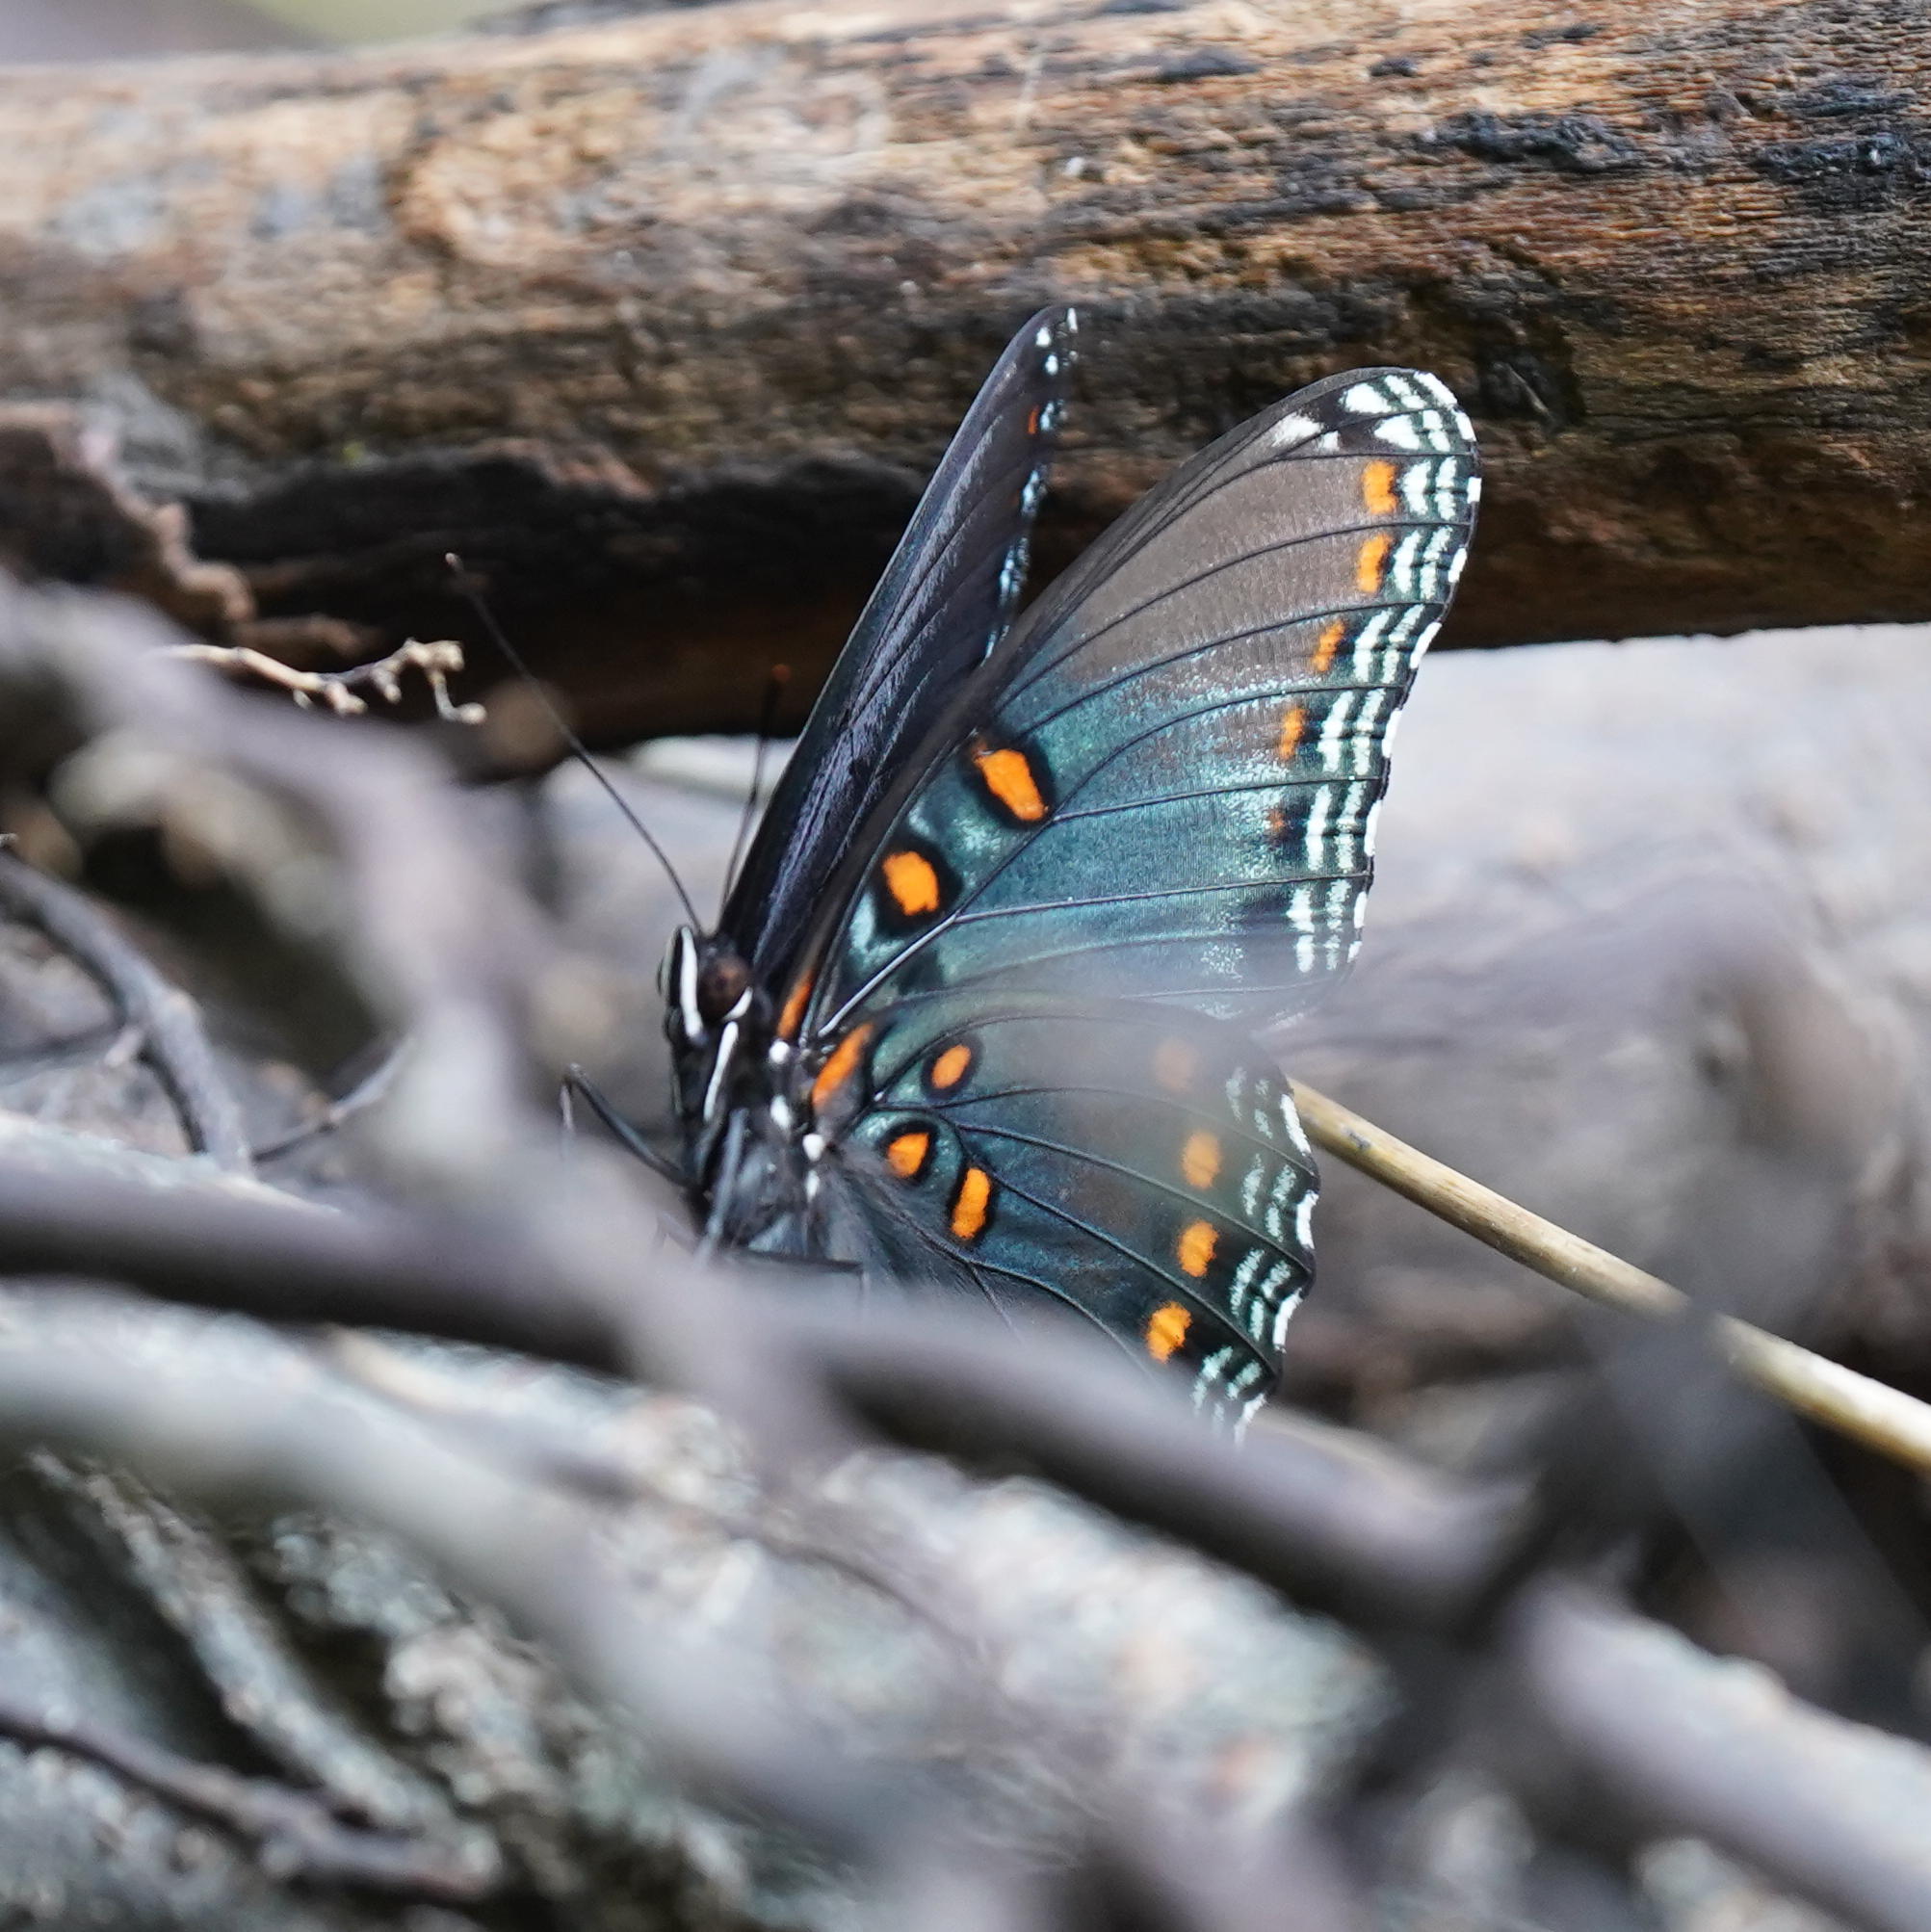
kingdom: Animalia
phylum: Arthropoda
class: Insecta
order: Lepidoptera
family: Nymphalidae
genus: Limenitis
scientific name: Limenitis astyanax
